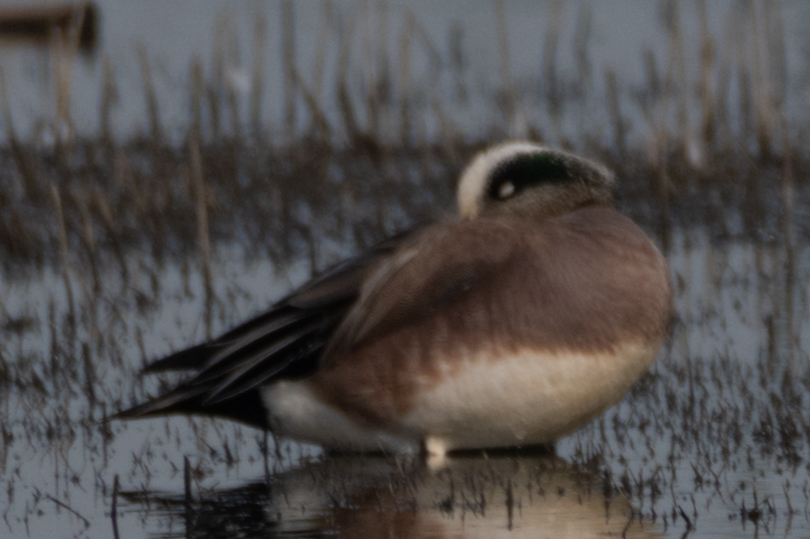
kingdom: Animalia
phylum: Chordata
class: Aves
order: Anseriformes
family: Anatidae
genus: Mareca
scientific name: Mareca americana
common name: American wigeon
